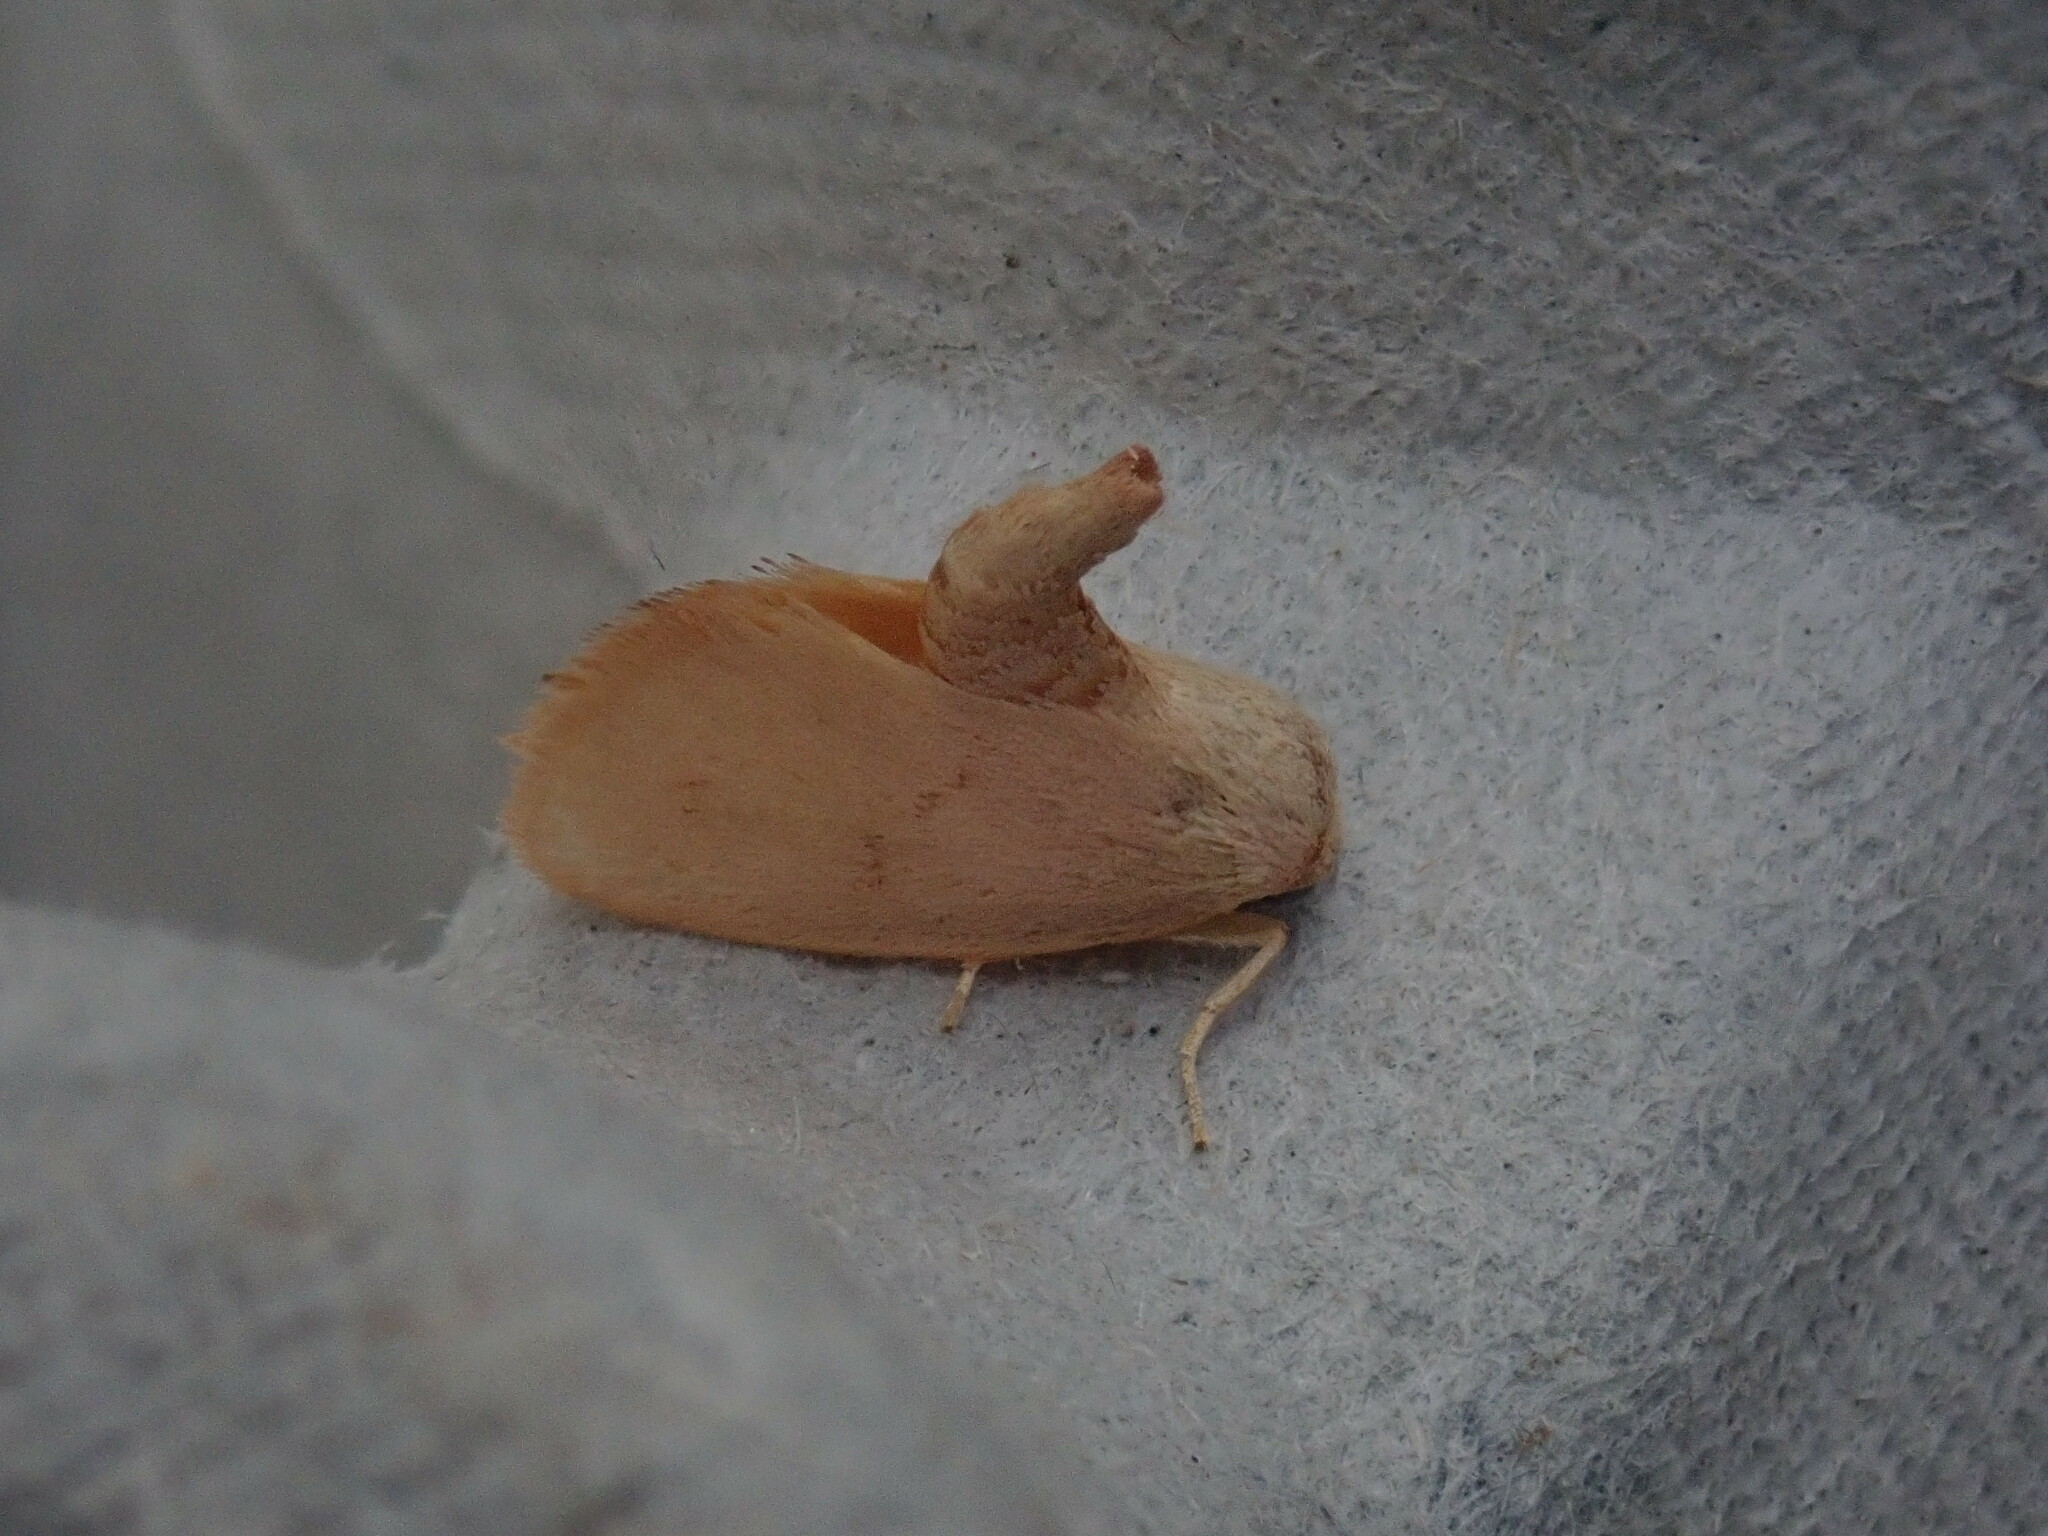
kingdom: Animalia
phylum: Arthropoda
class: Insecta
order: Lepidoptera
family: Limacodidae
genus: Tortricidia
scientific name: Tortricidia pallida
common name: Red-crossed button slug moth
